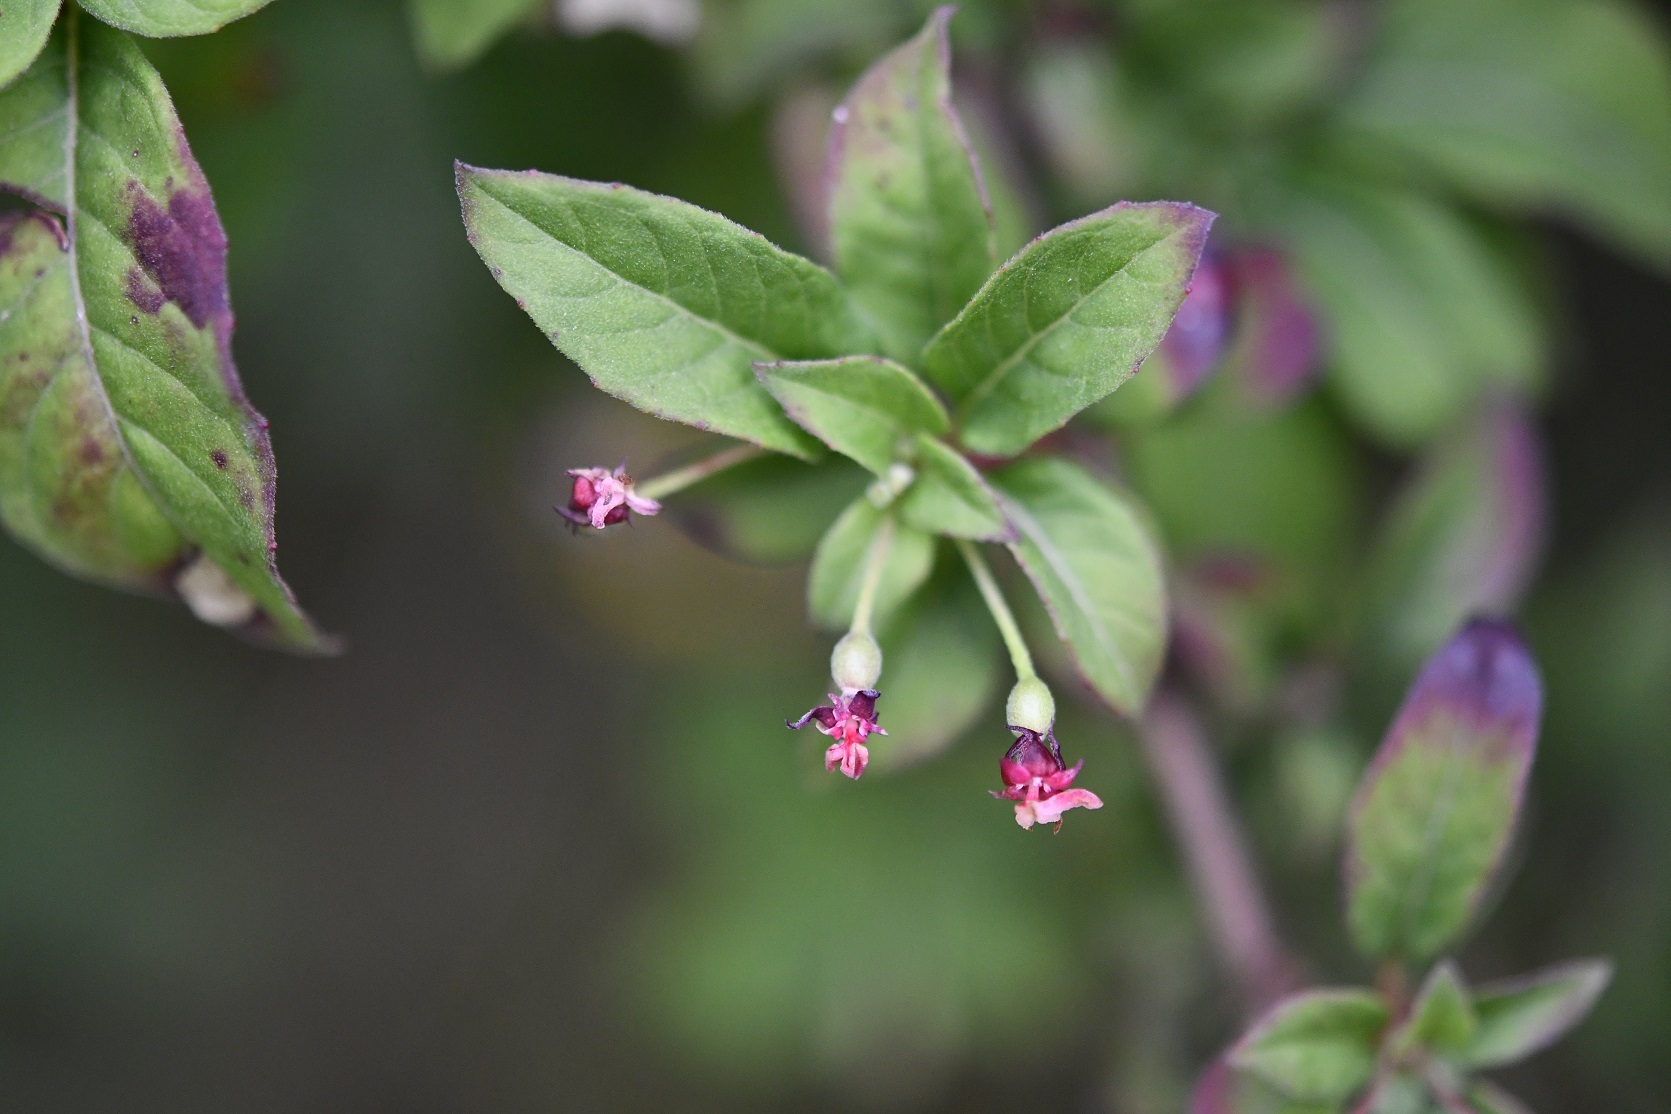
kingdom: Plantae
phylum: Tracheophyta
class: Magnoliopsida
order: Myrtales
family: Onagraceae
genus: Fuchsia
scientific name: Fuchsia encliandra
